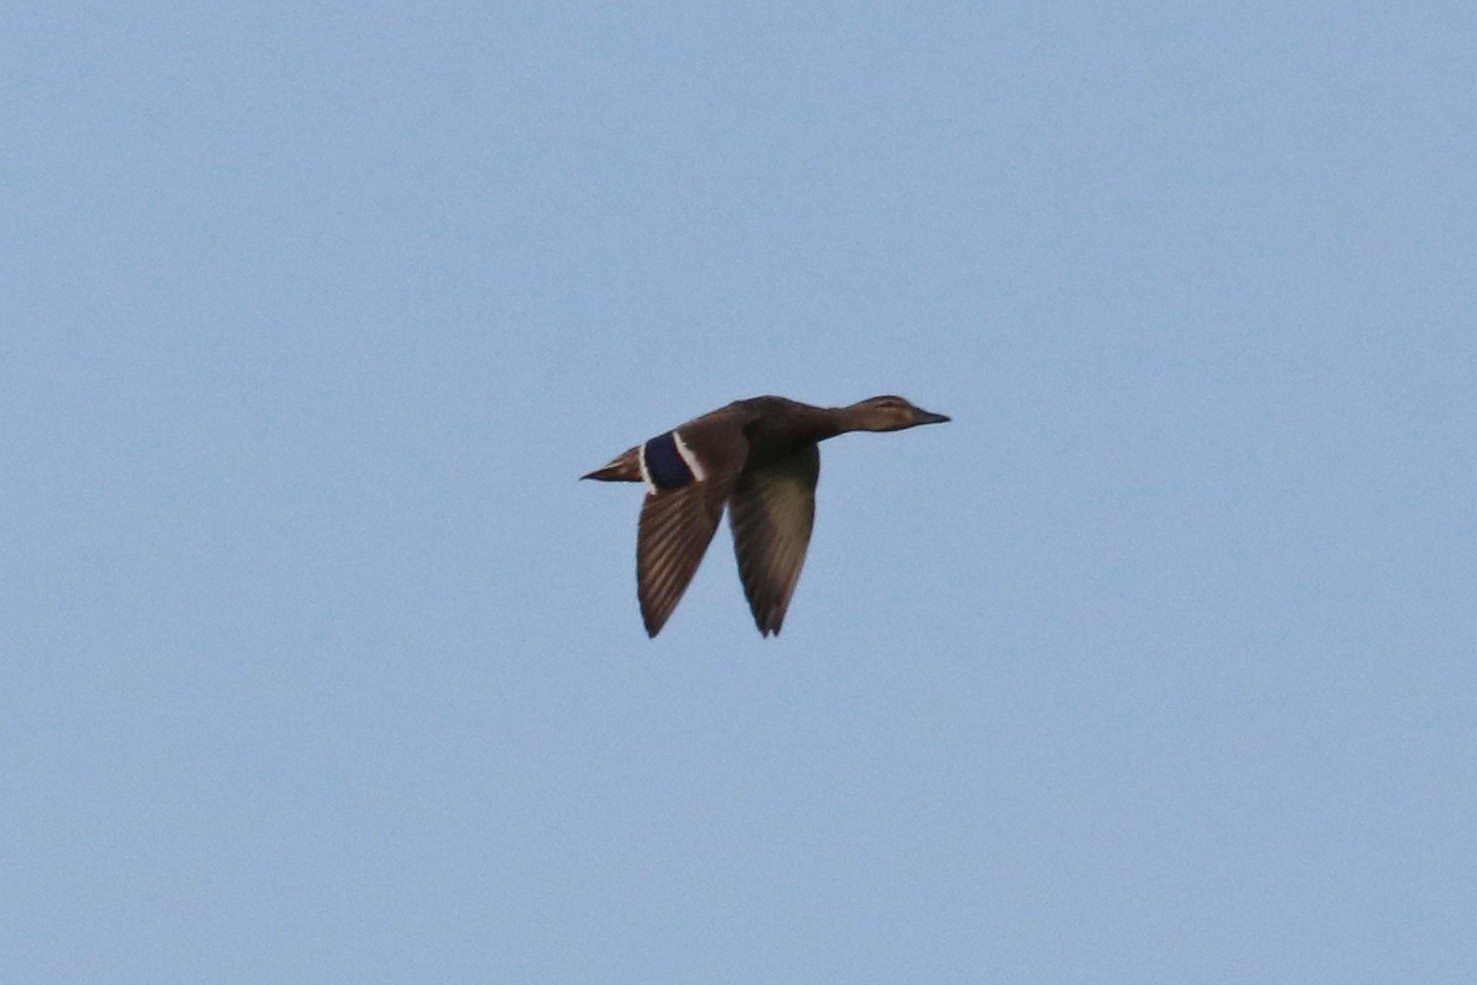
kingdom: Animalia
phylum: Chordata
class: Aves
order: Anseriformes
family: Anatidae
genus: Anas
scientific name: Anas platyrhynchos
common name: Mallard
